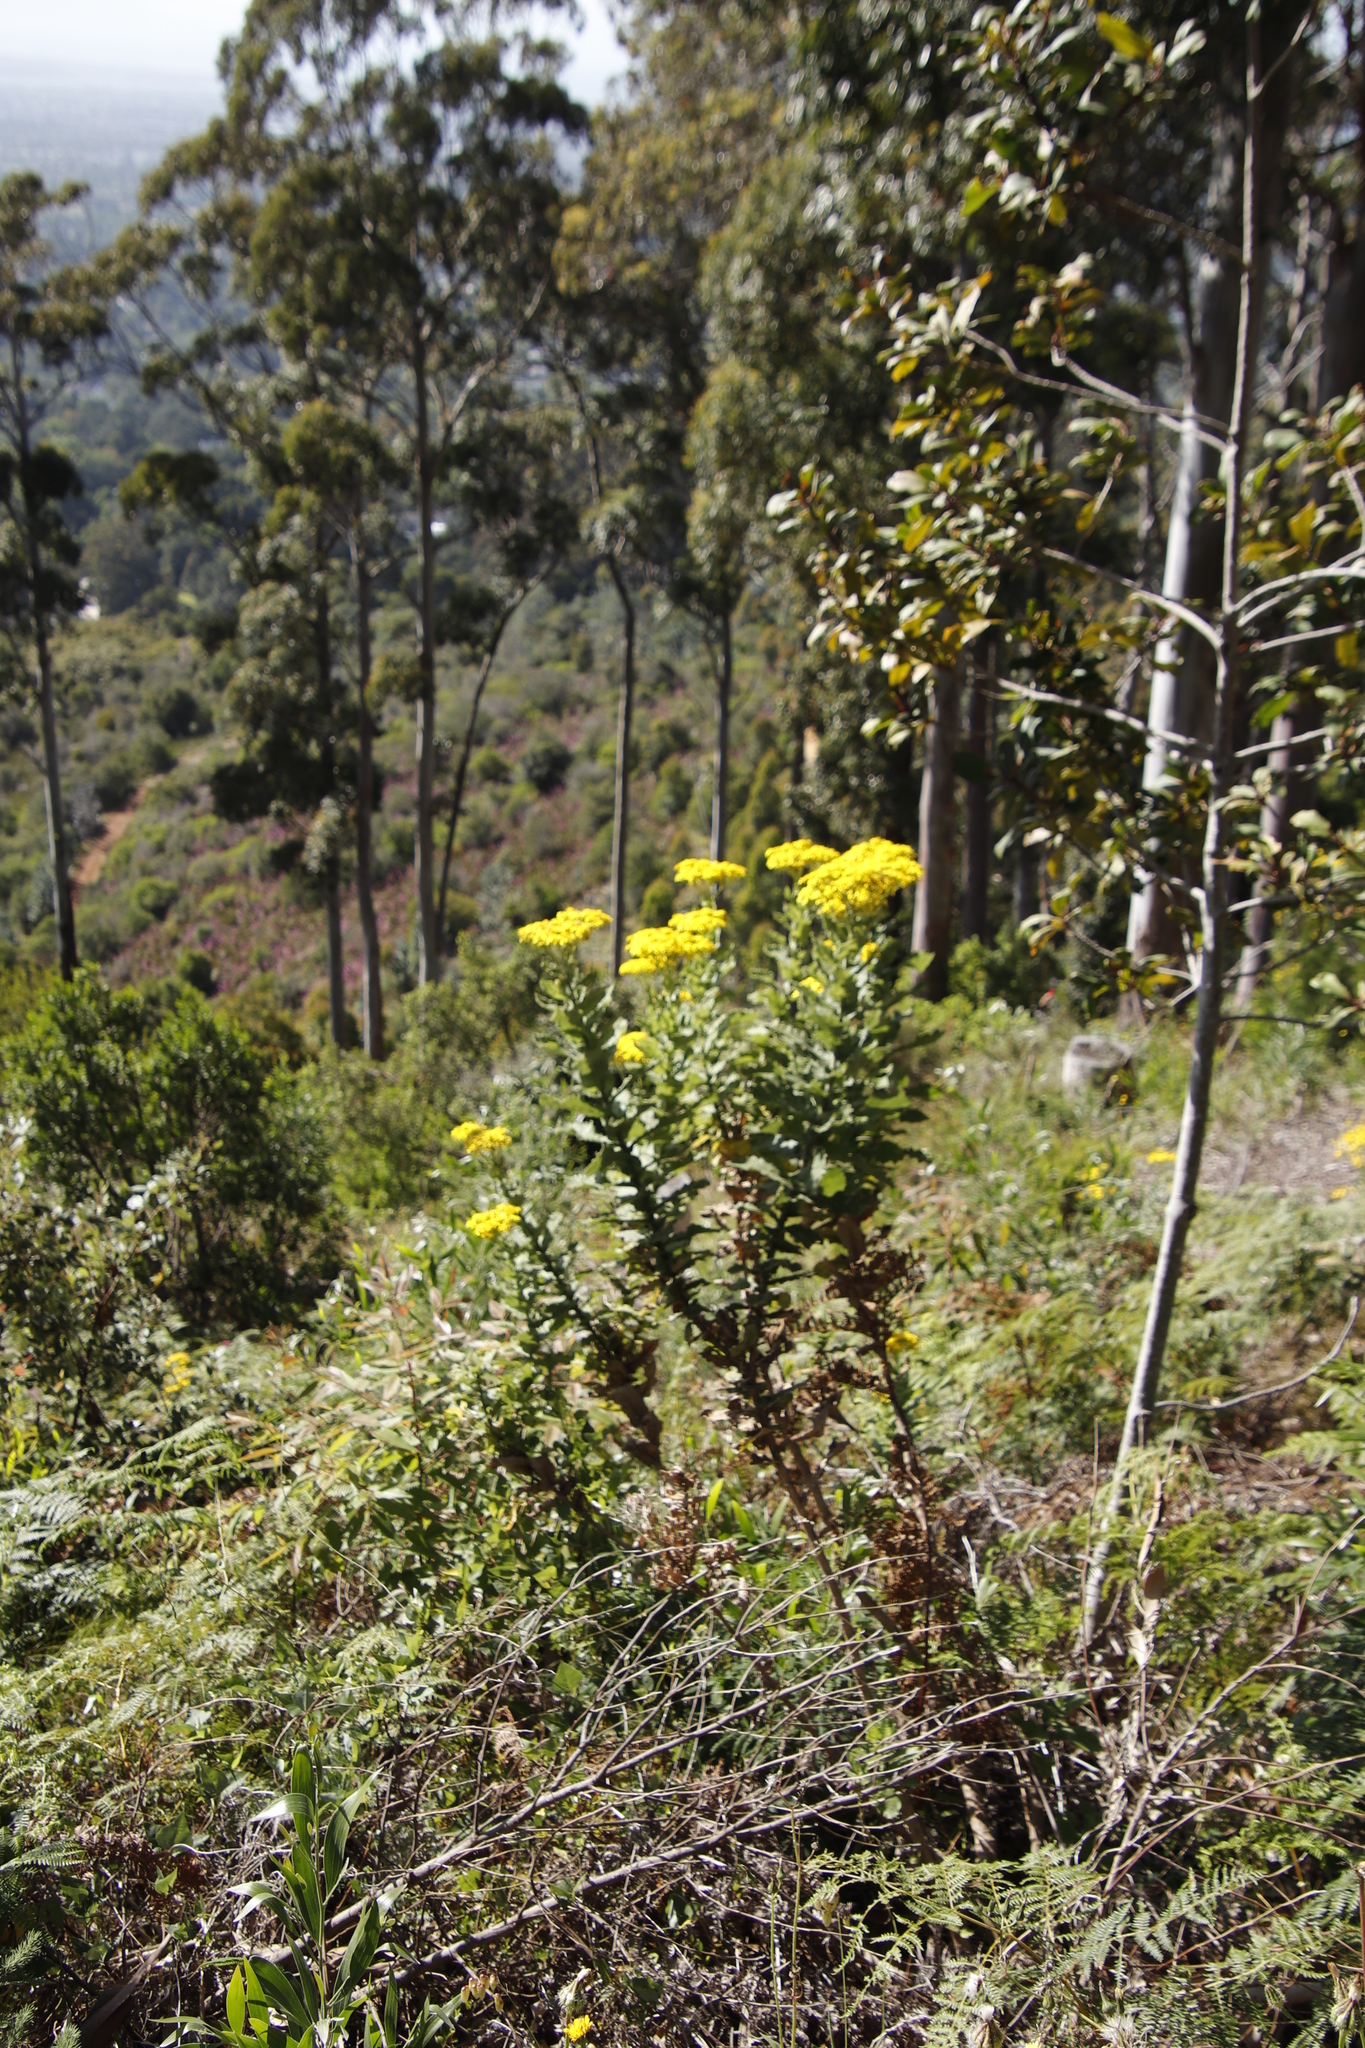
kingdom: Plantae
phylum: Tracheophyta
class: Magnoliopsida
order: Asterales
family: Asteraceae
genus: Senecio
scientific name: Senecio rigidus
